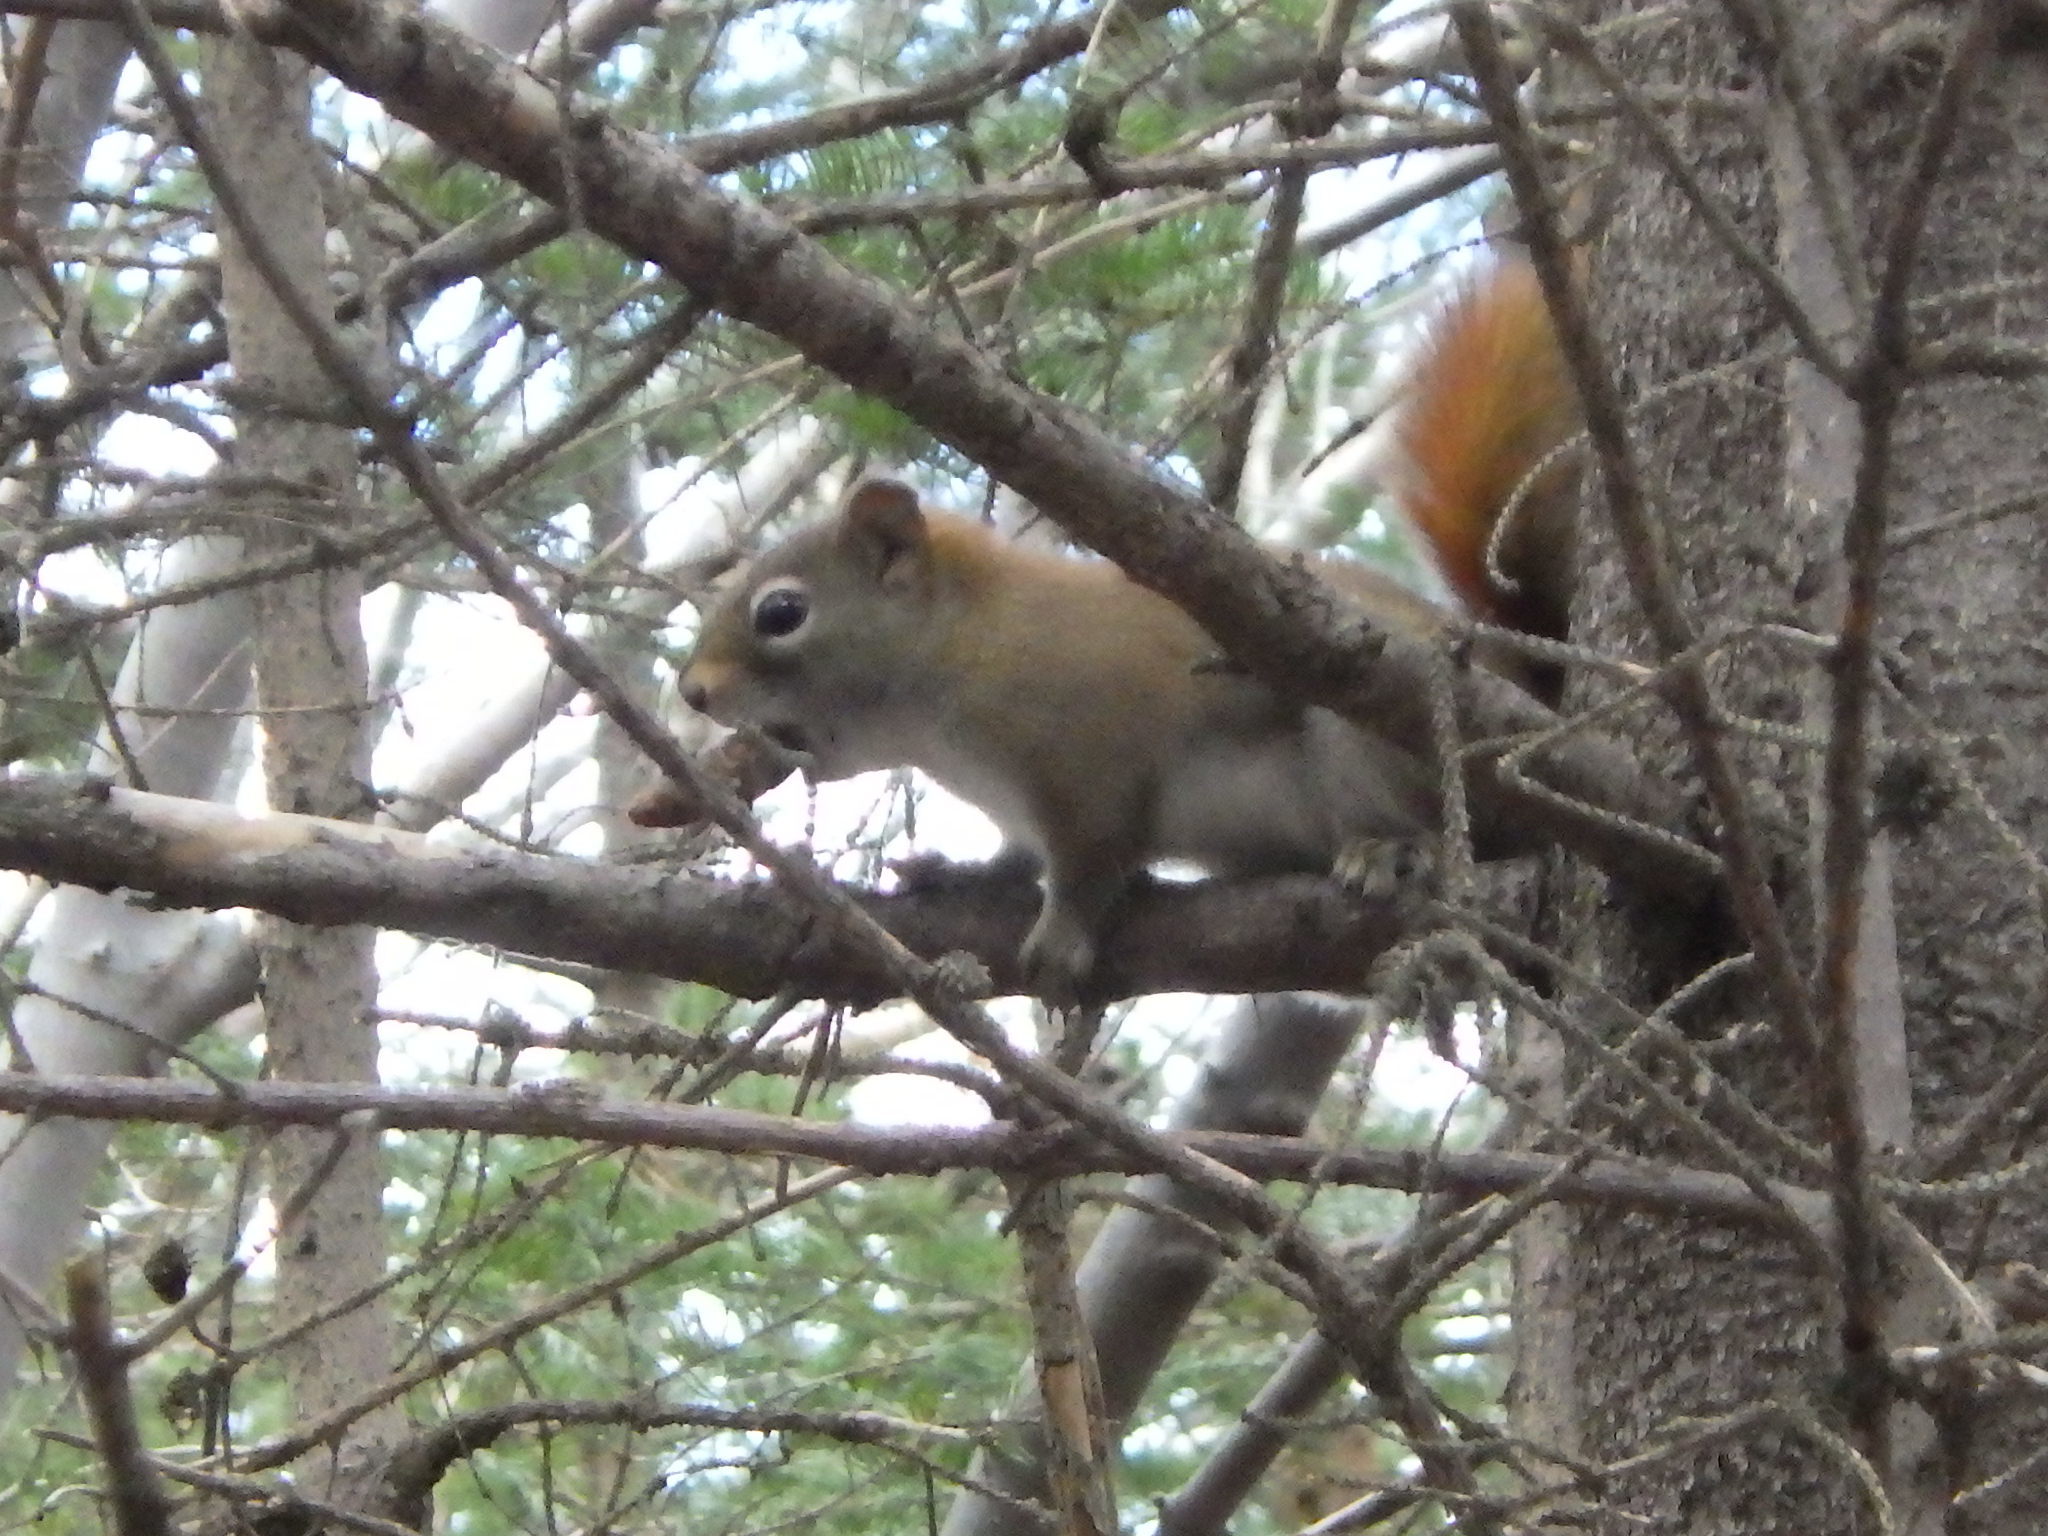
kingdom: Animalia
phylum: Chordata
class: Mammalia
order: Rodentia
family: Sciuridae
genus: Tamiasciurus
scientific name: Tamiasciurus hudsonicus
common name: Red squirrel
